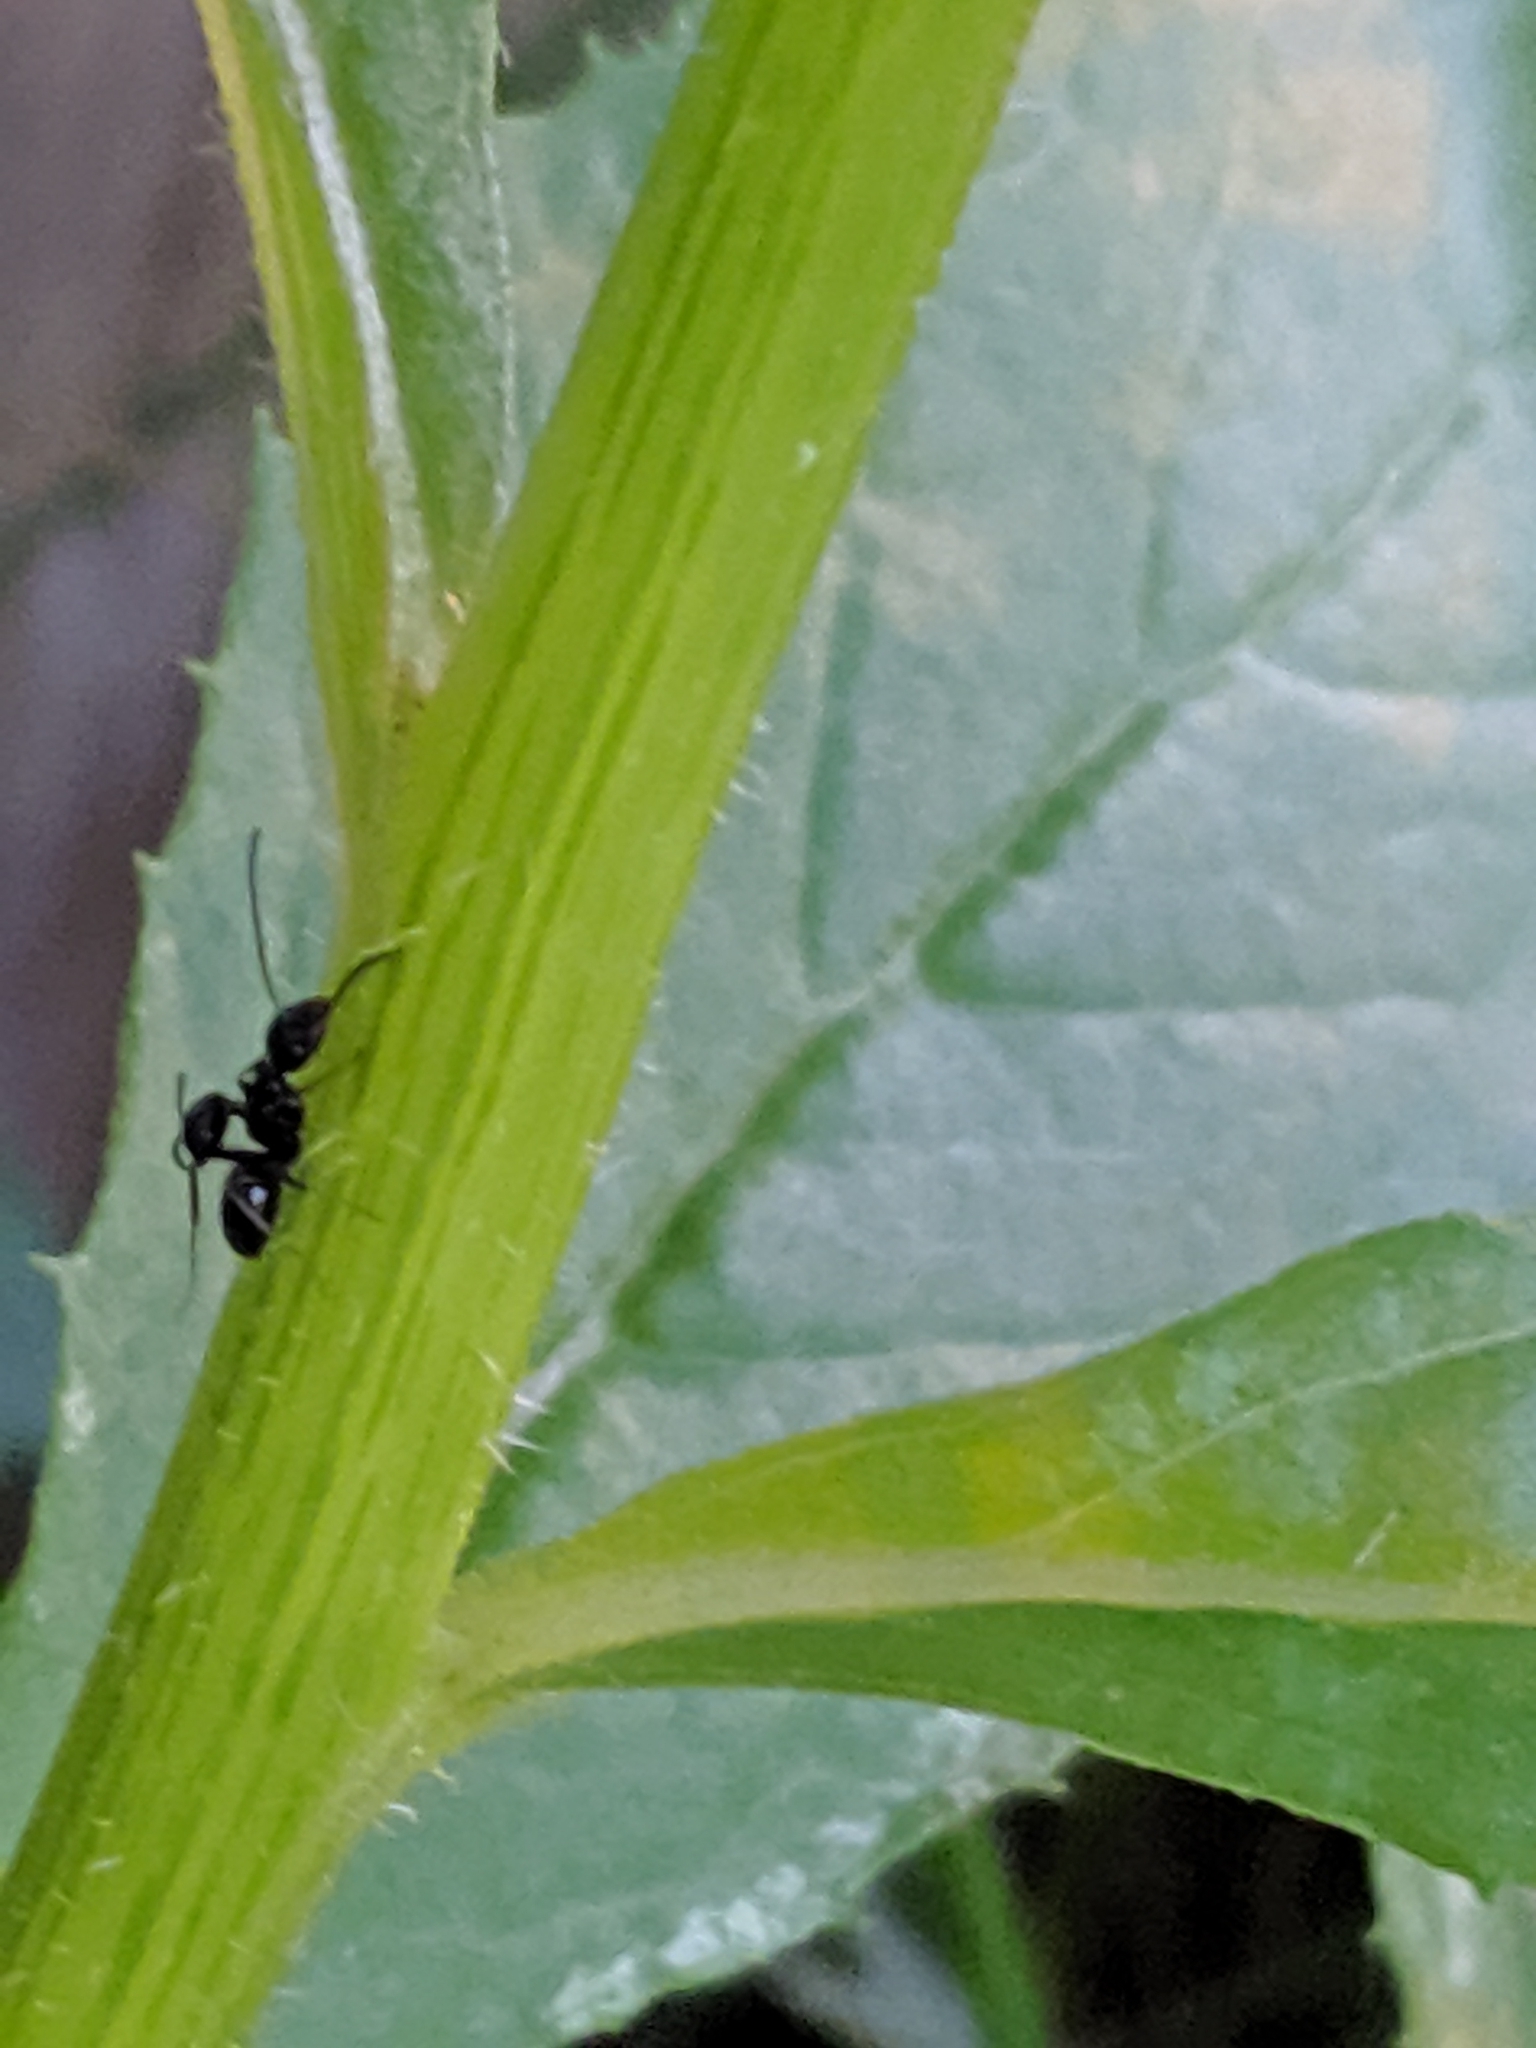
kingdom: Animalia
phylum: Arthropoda
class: Insecta
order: Hymenoptera
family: Formicidae
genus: Camponotus
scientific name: Camponotus
